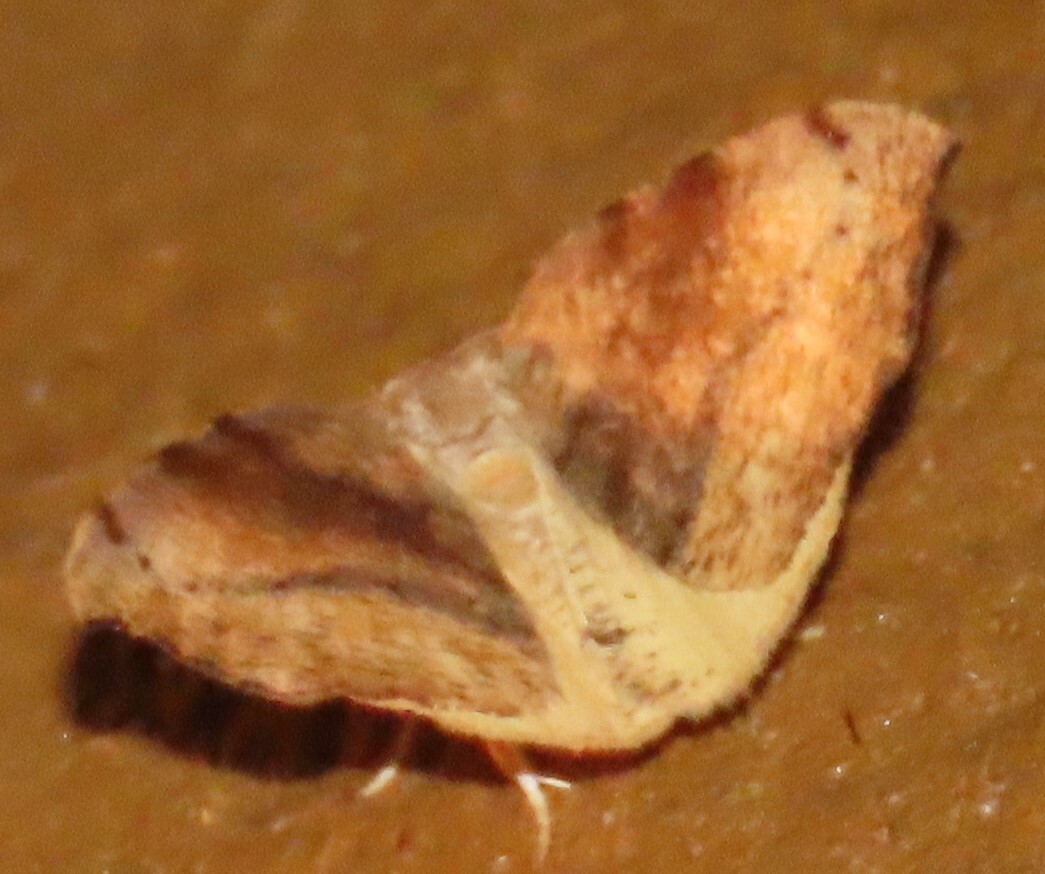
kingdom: Animalia
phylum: Arthropoda
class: Insecta
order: Lepidoptera
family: Geometridae
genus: Sestra
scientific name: Sestra flexata
